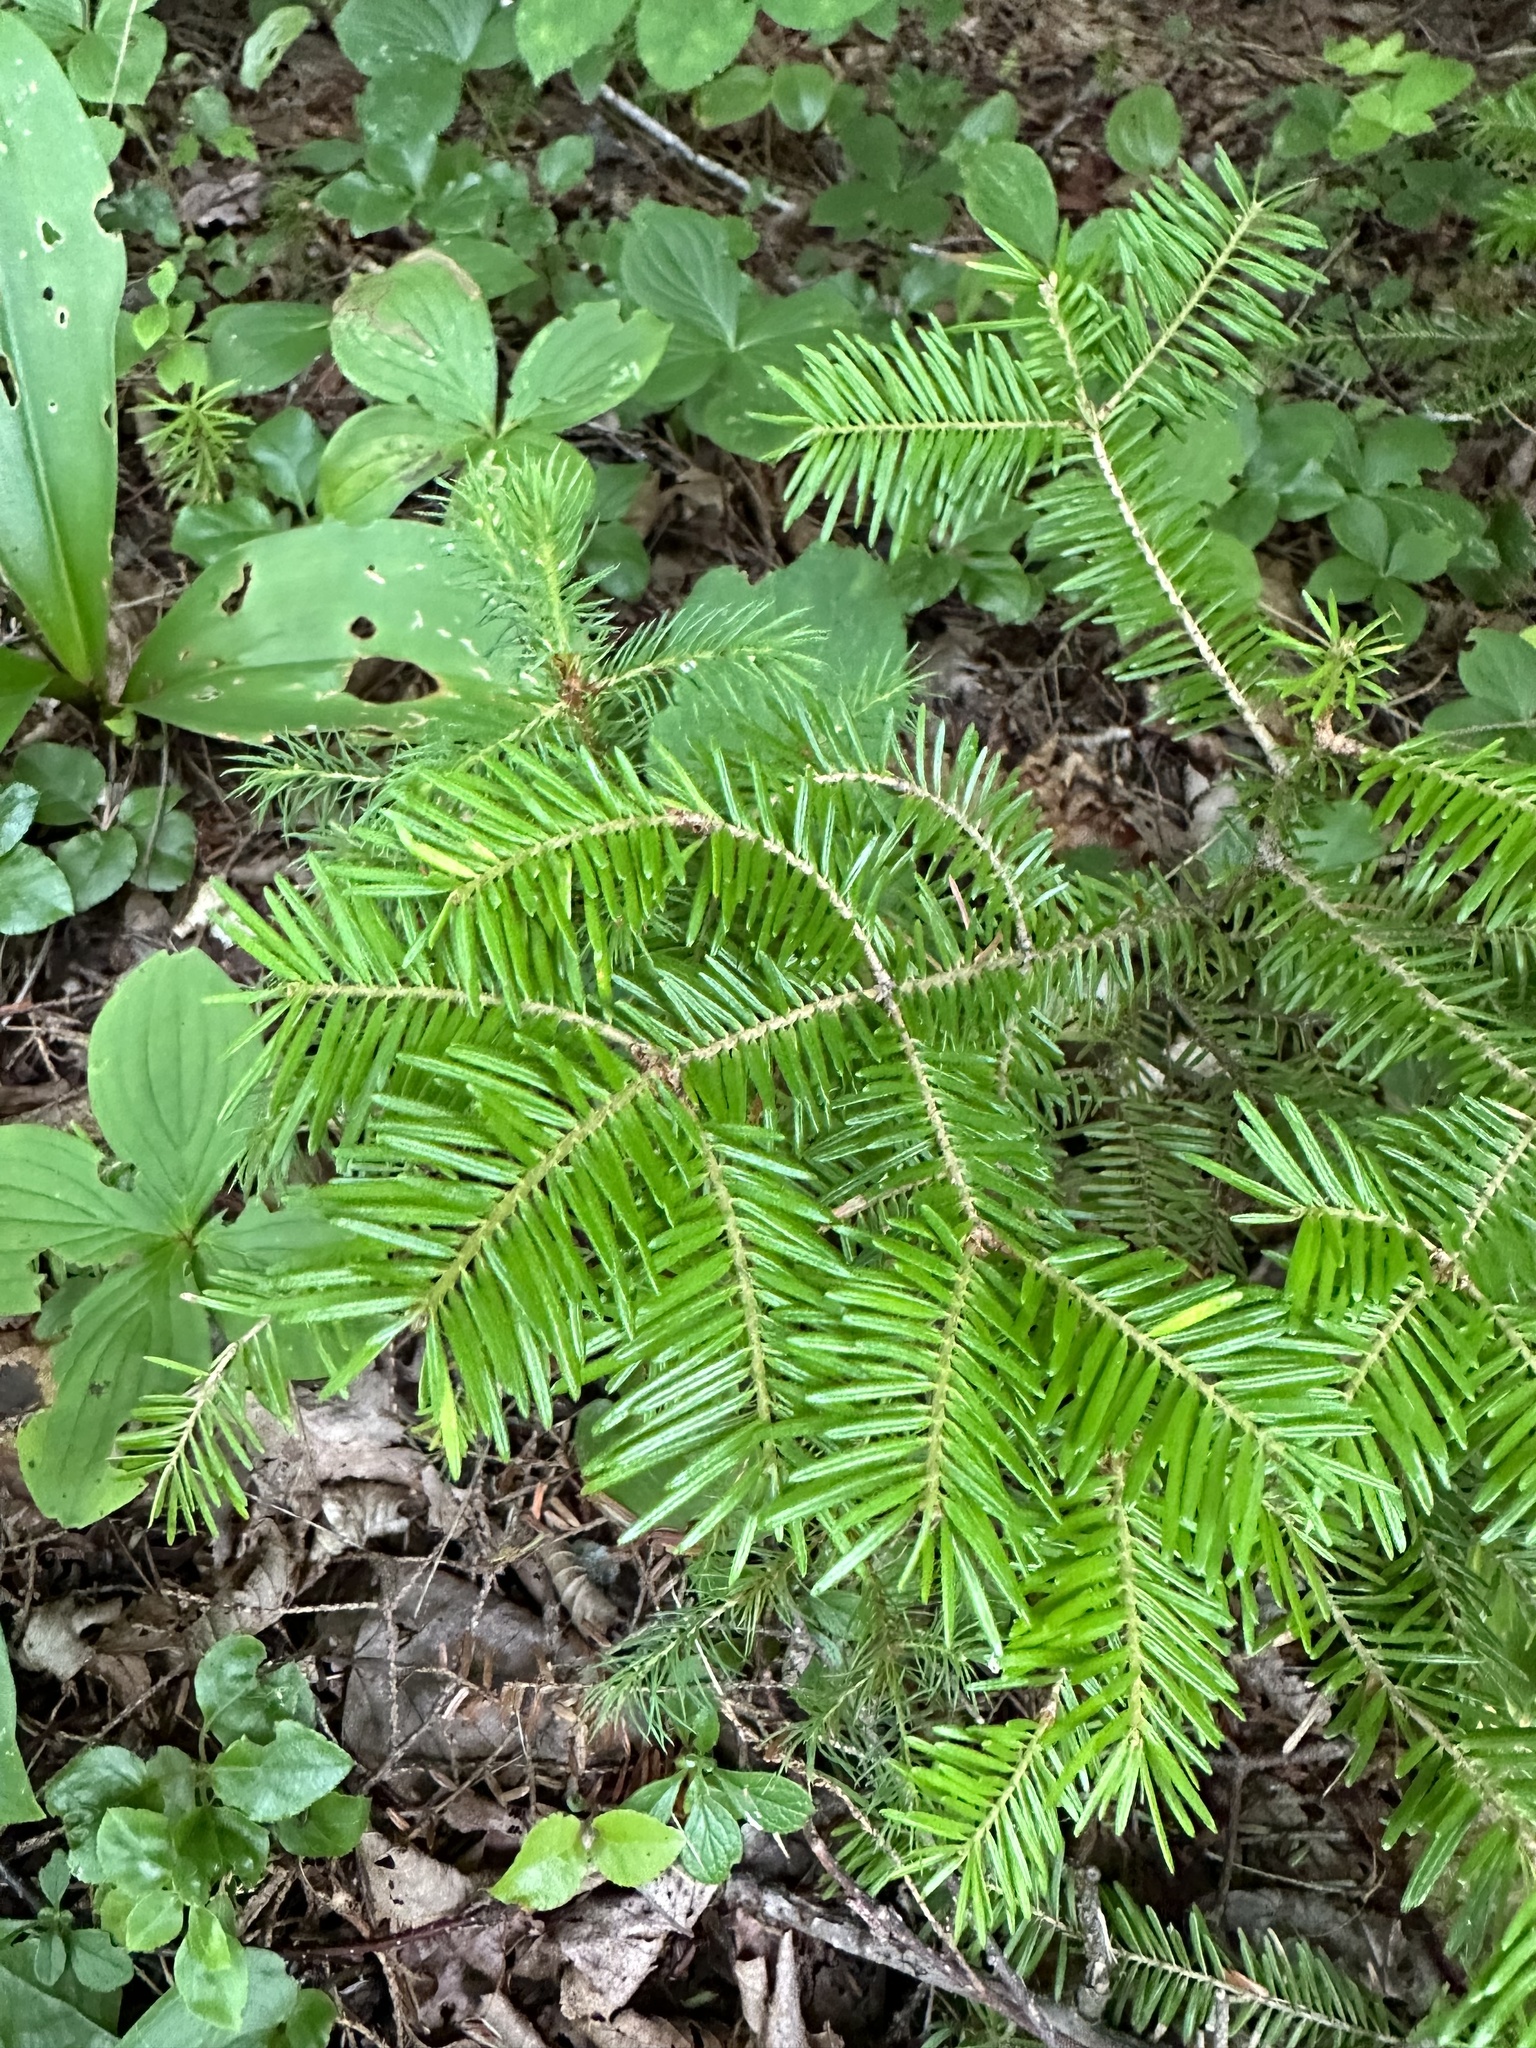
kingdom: Plantae
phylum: Tracheophyta
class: Pinopsida
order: Pinales
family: Pinaceae
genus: Abies
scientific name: Abies balsamea
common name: Balsam fir
